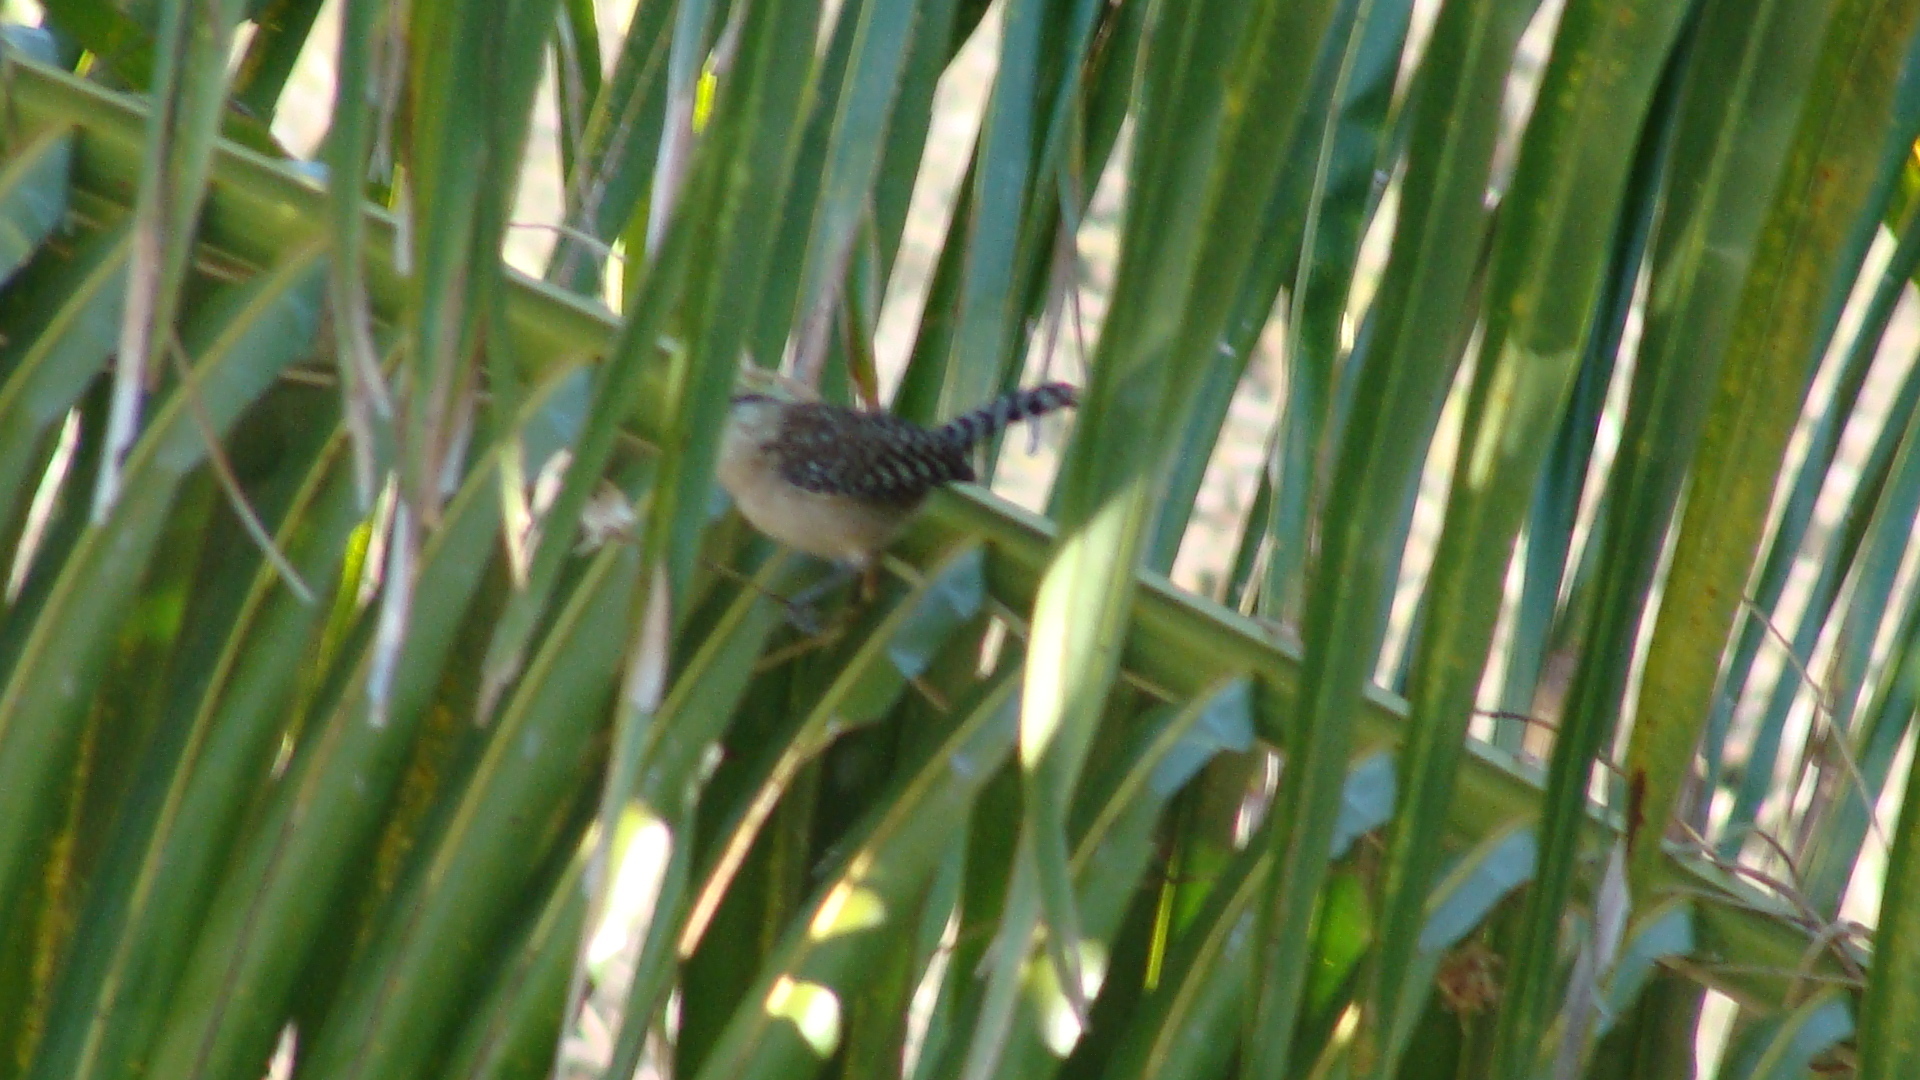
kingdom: Animalia
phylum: Chordata
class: Aves
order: Passeriformes
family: Troglodytidae
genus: Campylorhynchus
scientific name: Campylorhynchus rufinucha
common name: Rufous-naped wren
